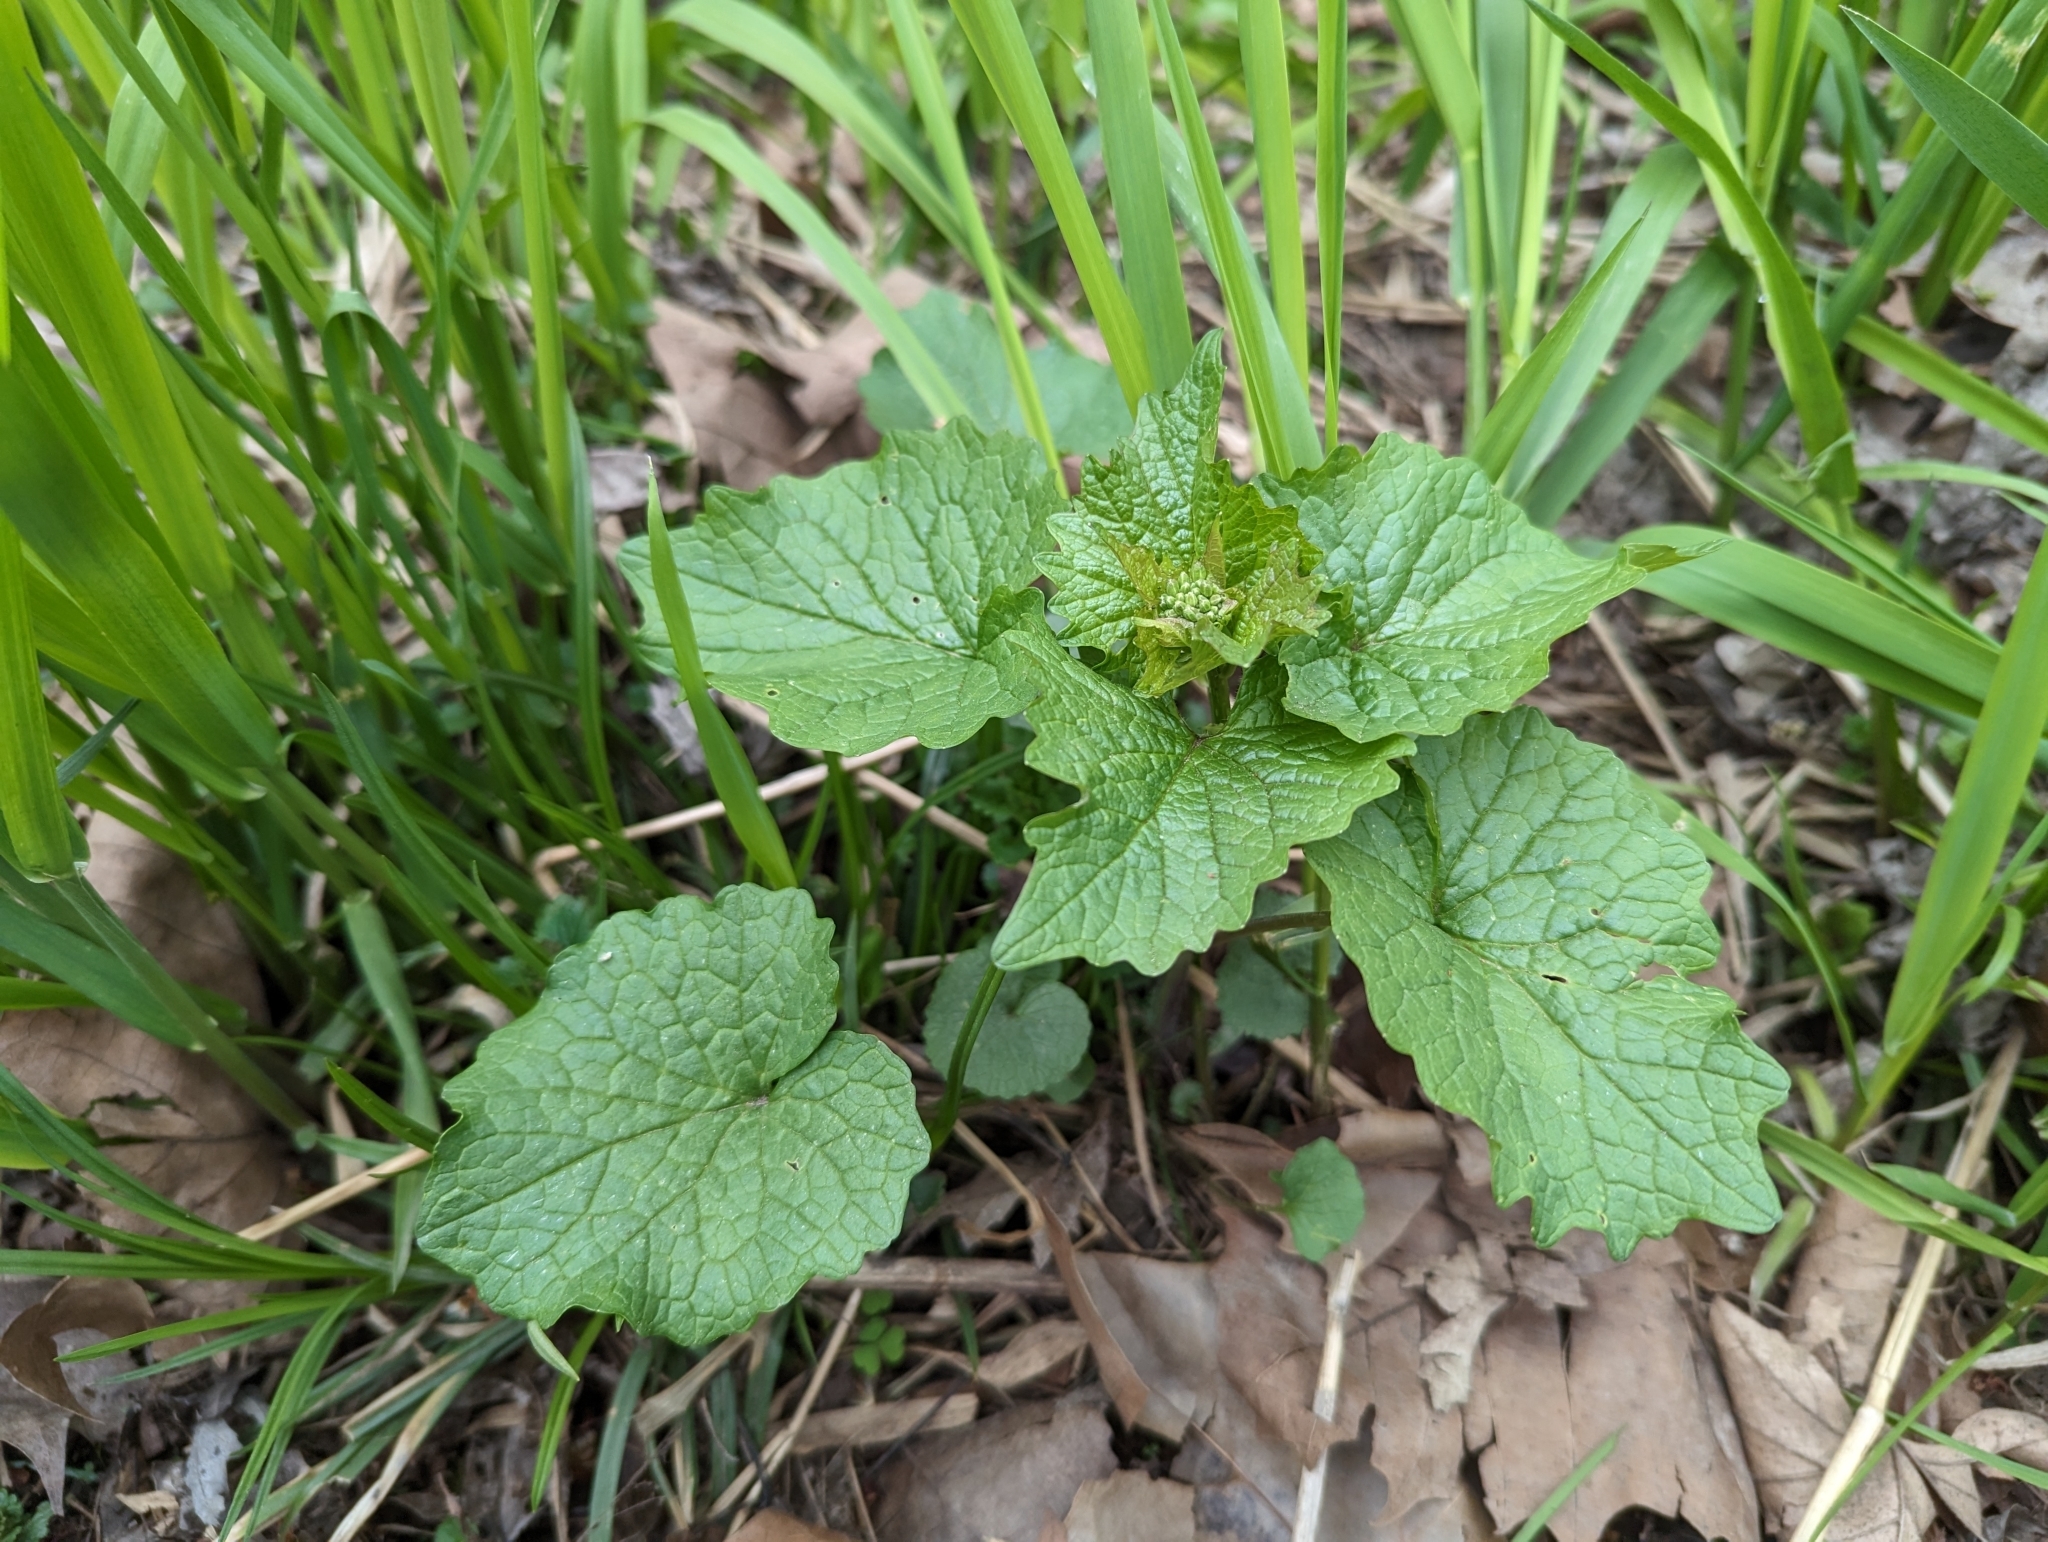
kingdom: Plantae
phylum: Tracheophyta
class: Magnoliopsida
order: Brassicales
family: Brassicaceae
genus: Alliaria
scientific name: Alliaria petiolata
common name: Garlic mustard
